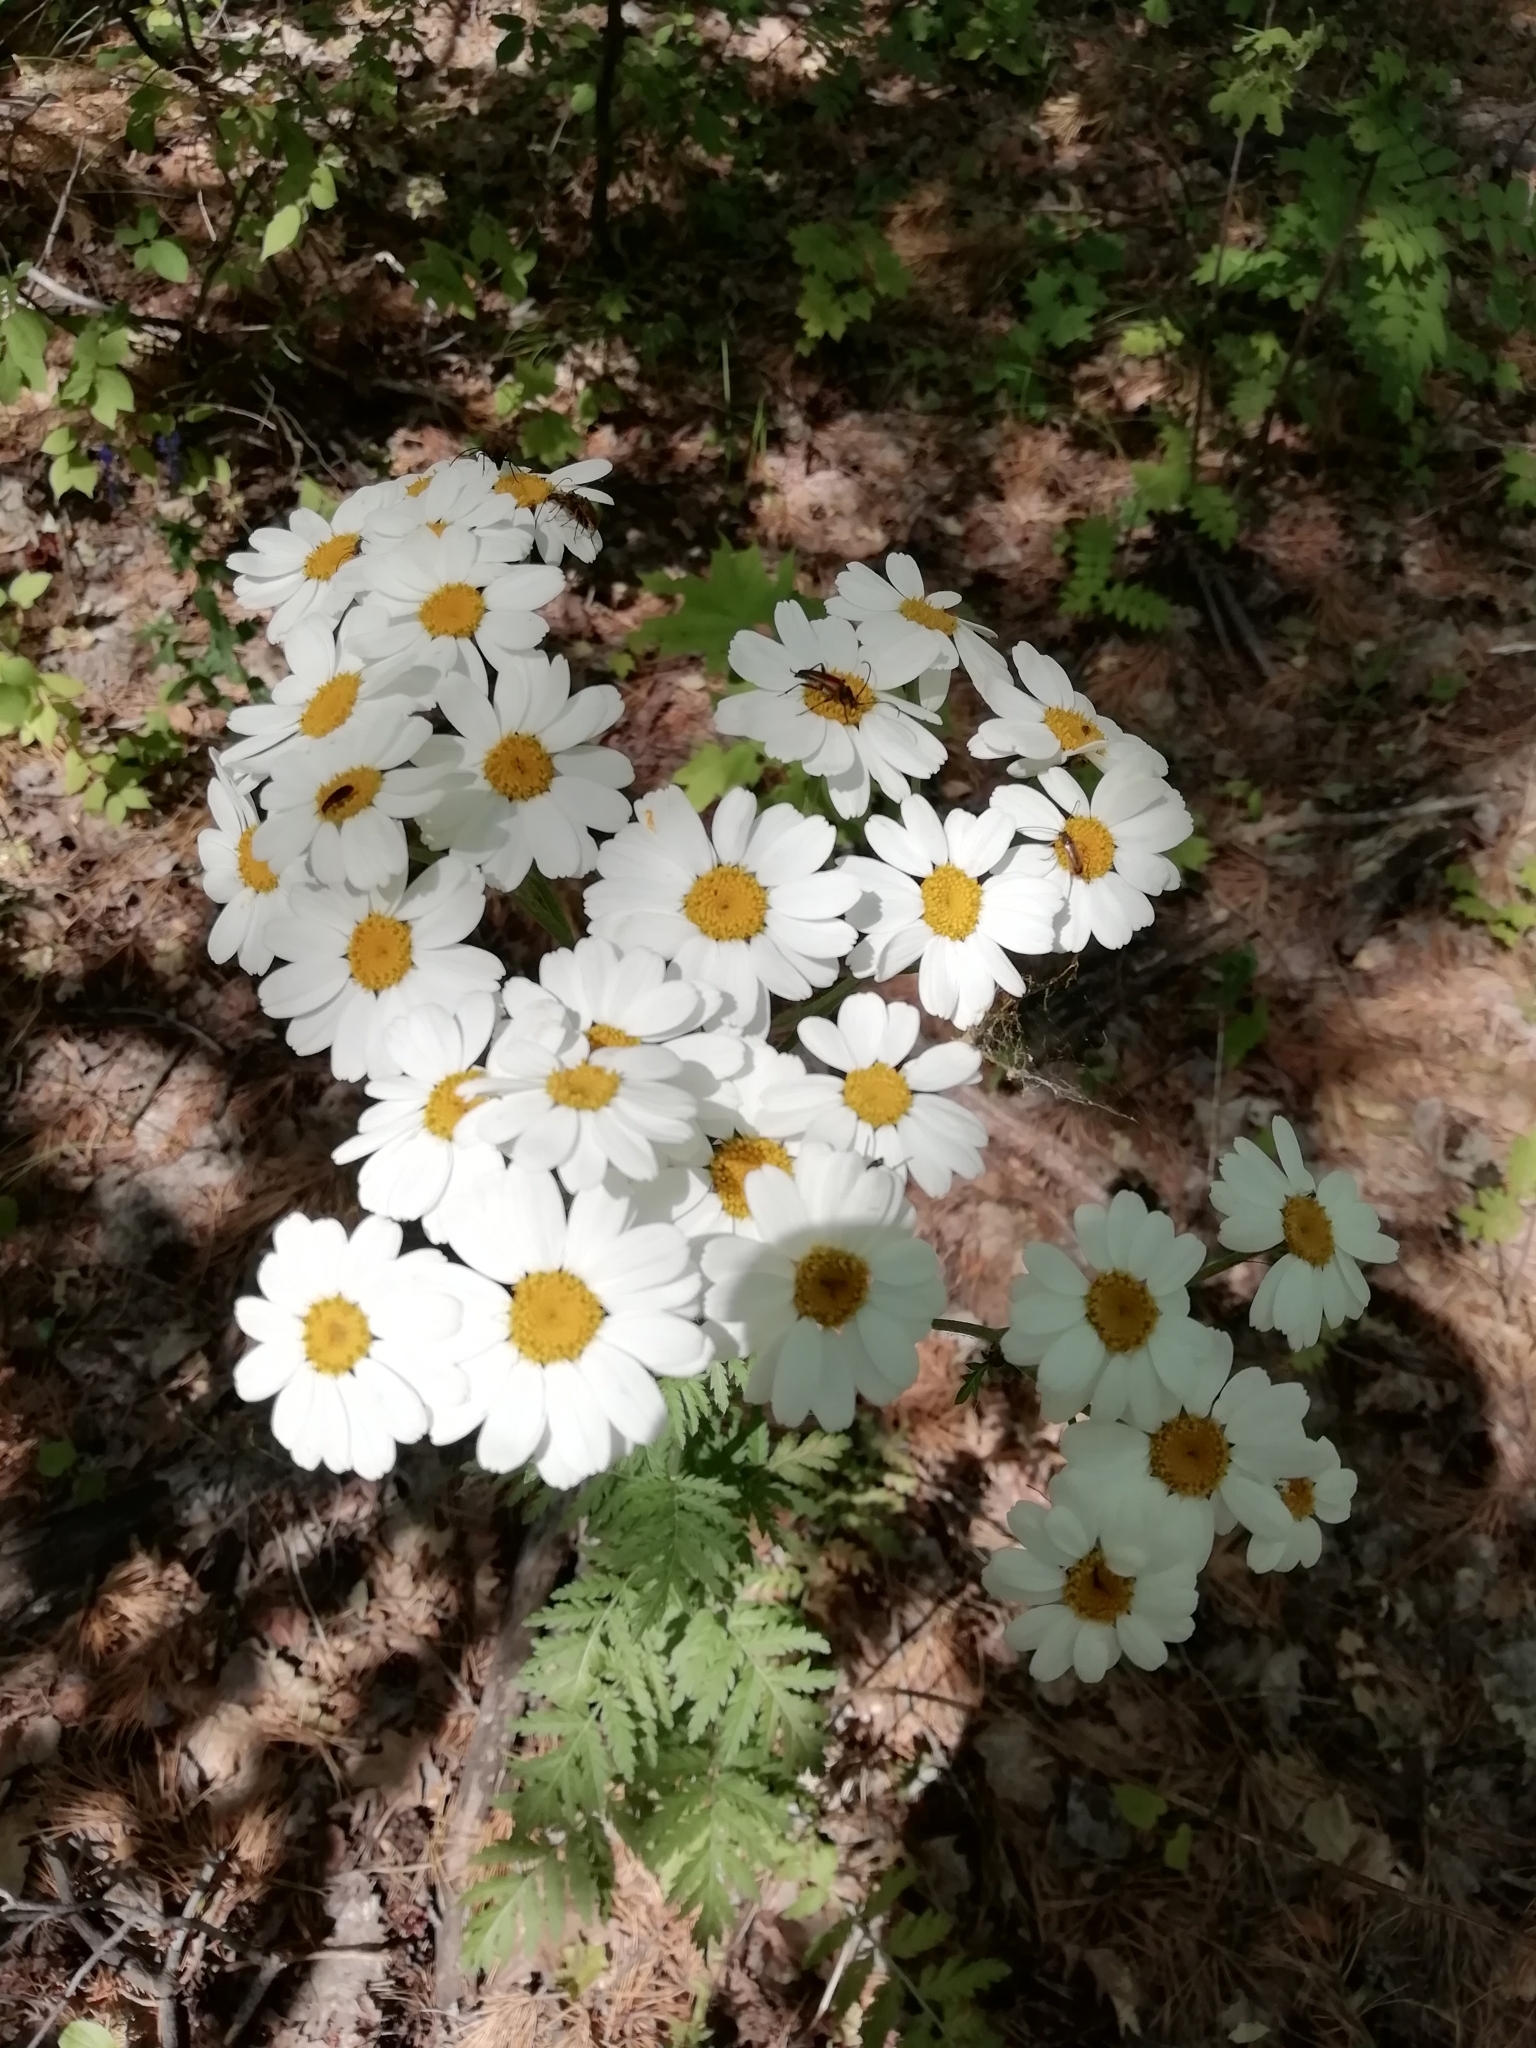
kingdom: Plantae
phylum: Tracheophyta
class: Magnoliopsida
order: Asterales
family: Asteraceae
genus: Tanacetum
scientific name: Tanacetum corymbosum
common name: Scentless feverfew
